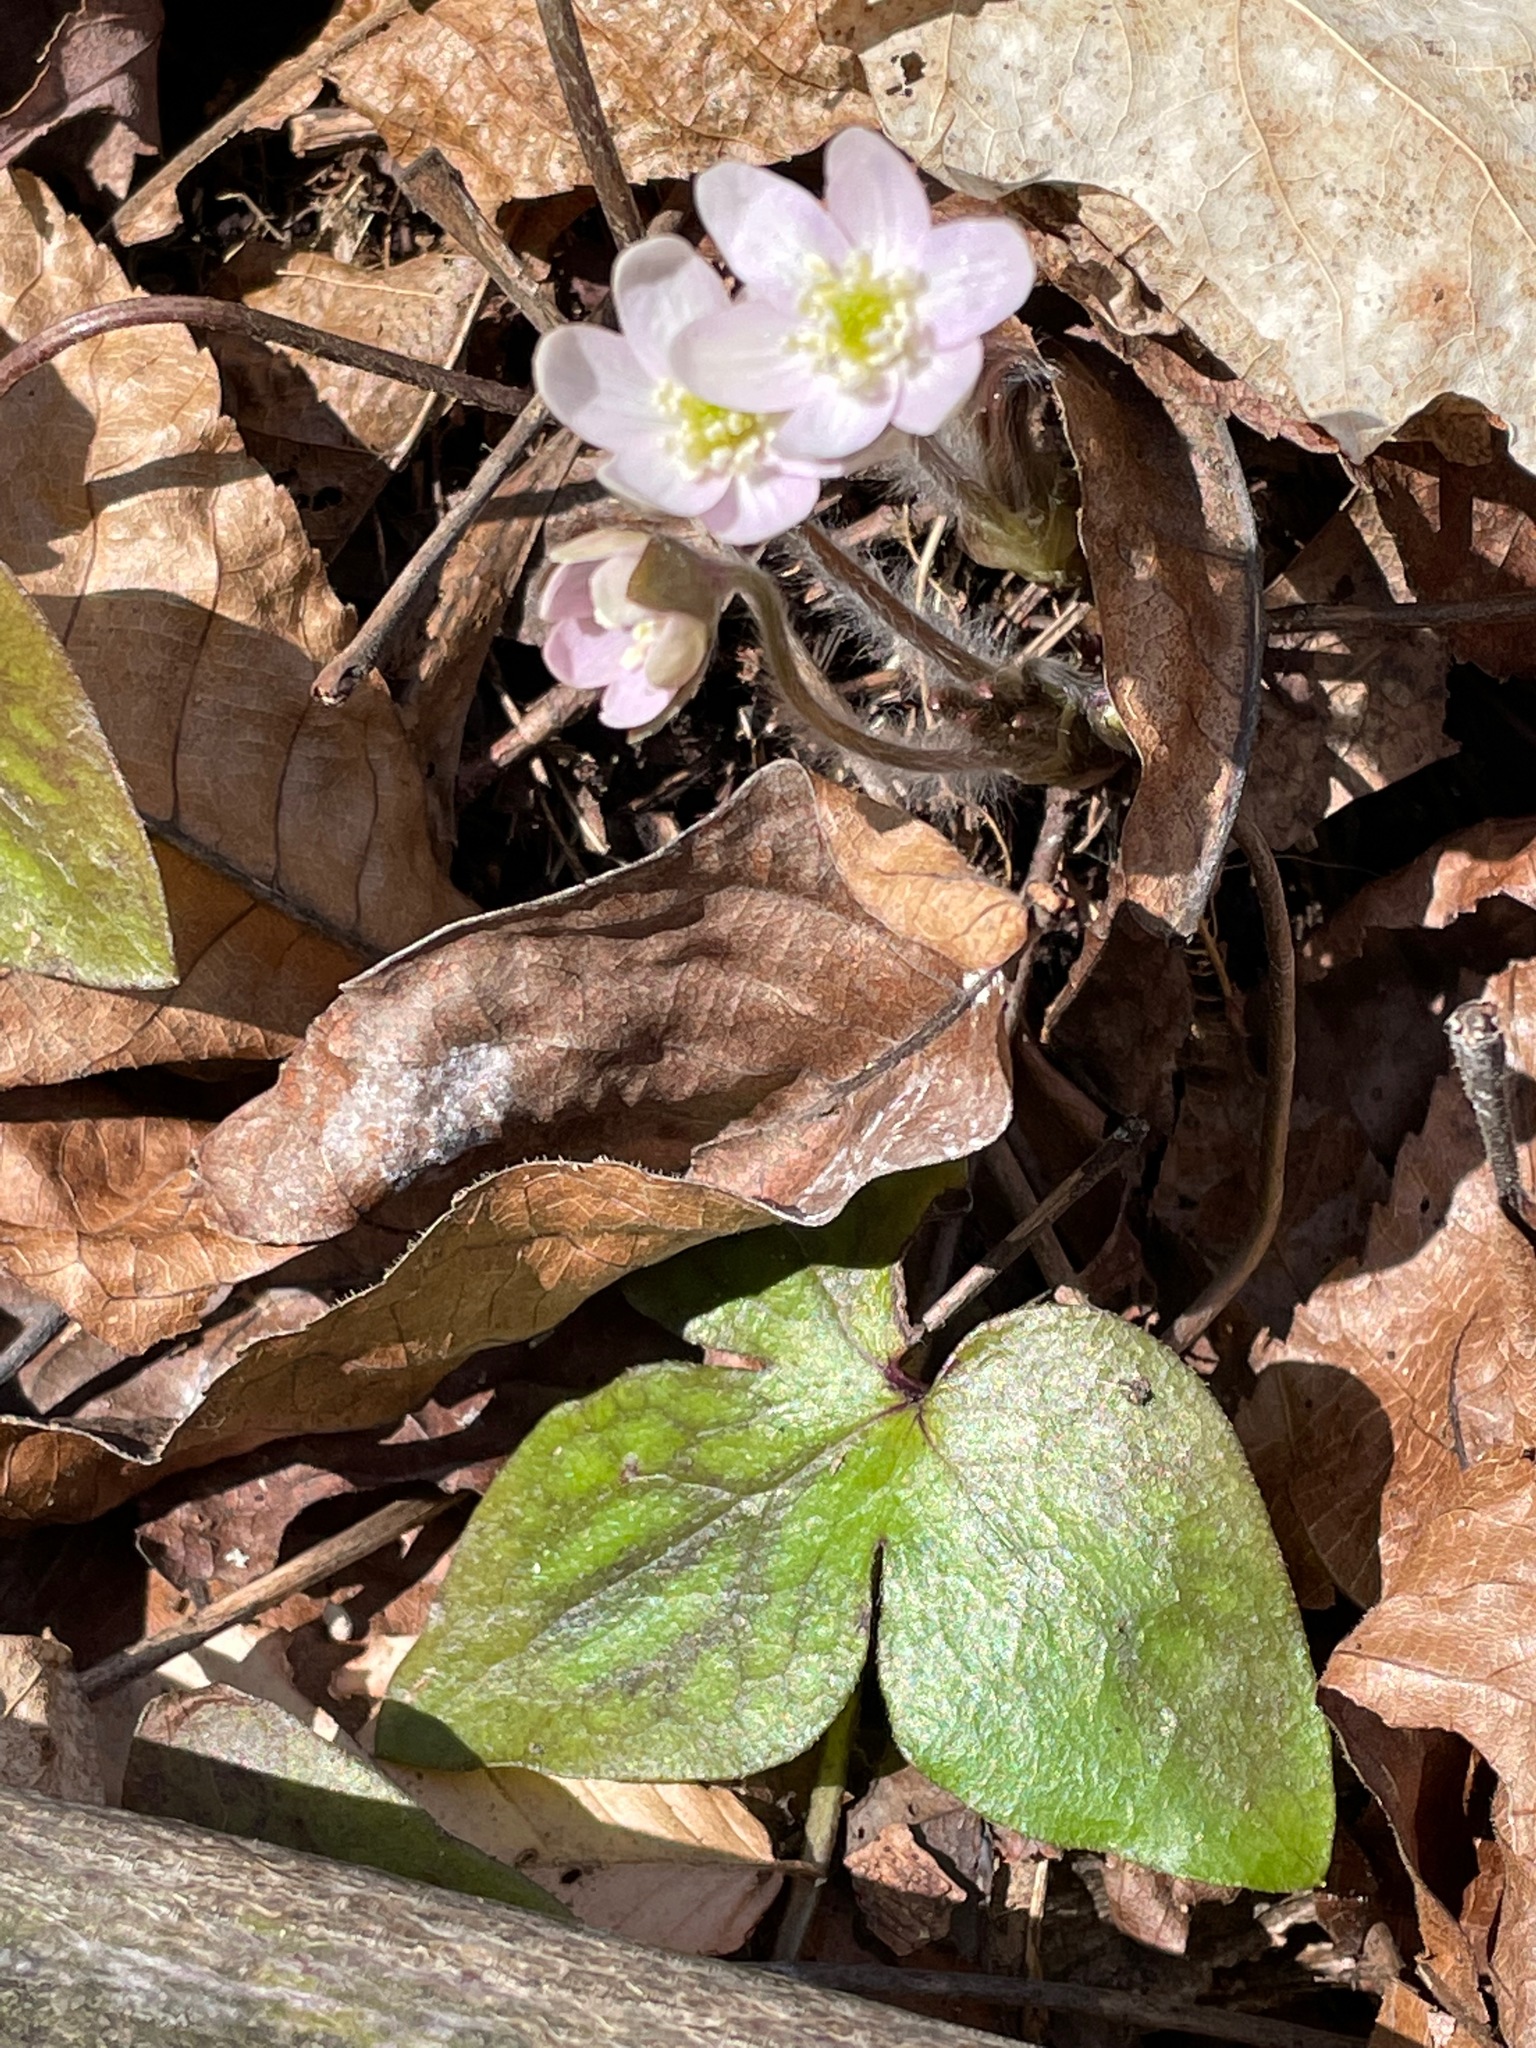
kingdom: Plantae
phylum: Tracheophyta
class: Magnoliopsida
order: Ranunculales
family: Ranunculaceae
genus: Hepatica
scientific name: Hepatica acutiloba
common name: Sharp-lobed hepatica
